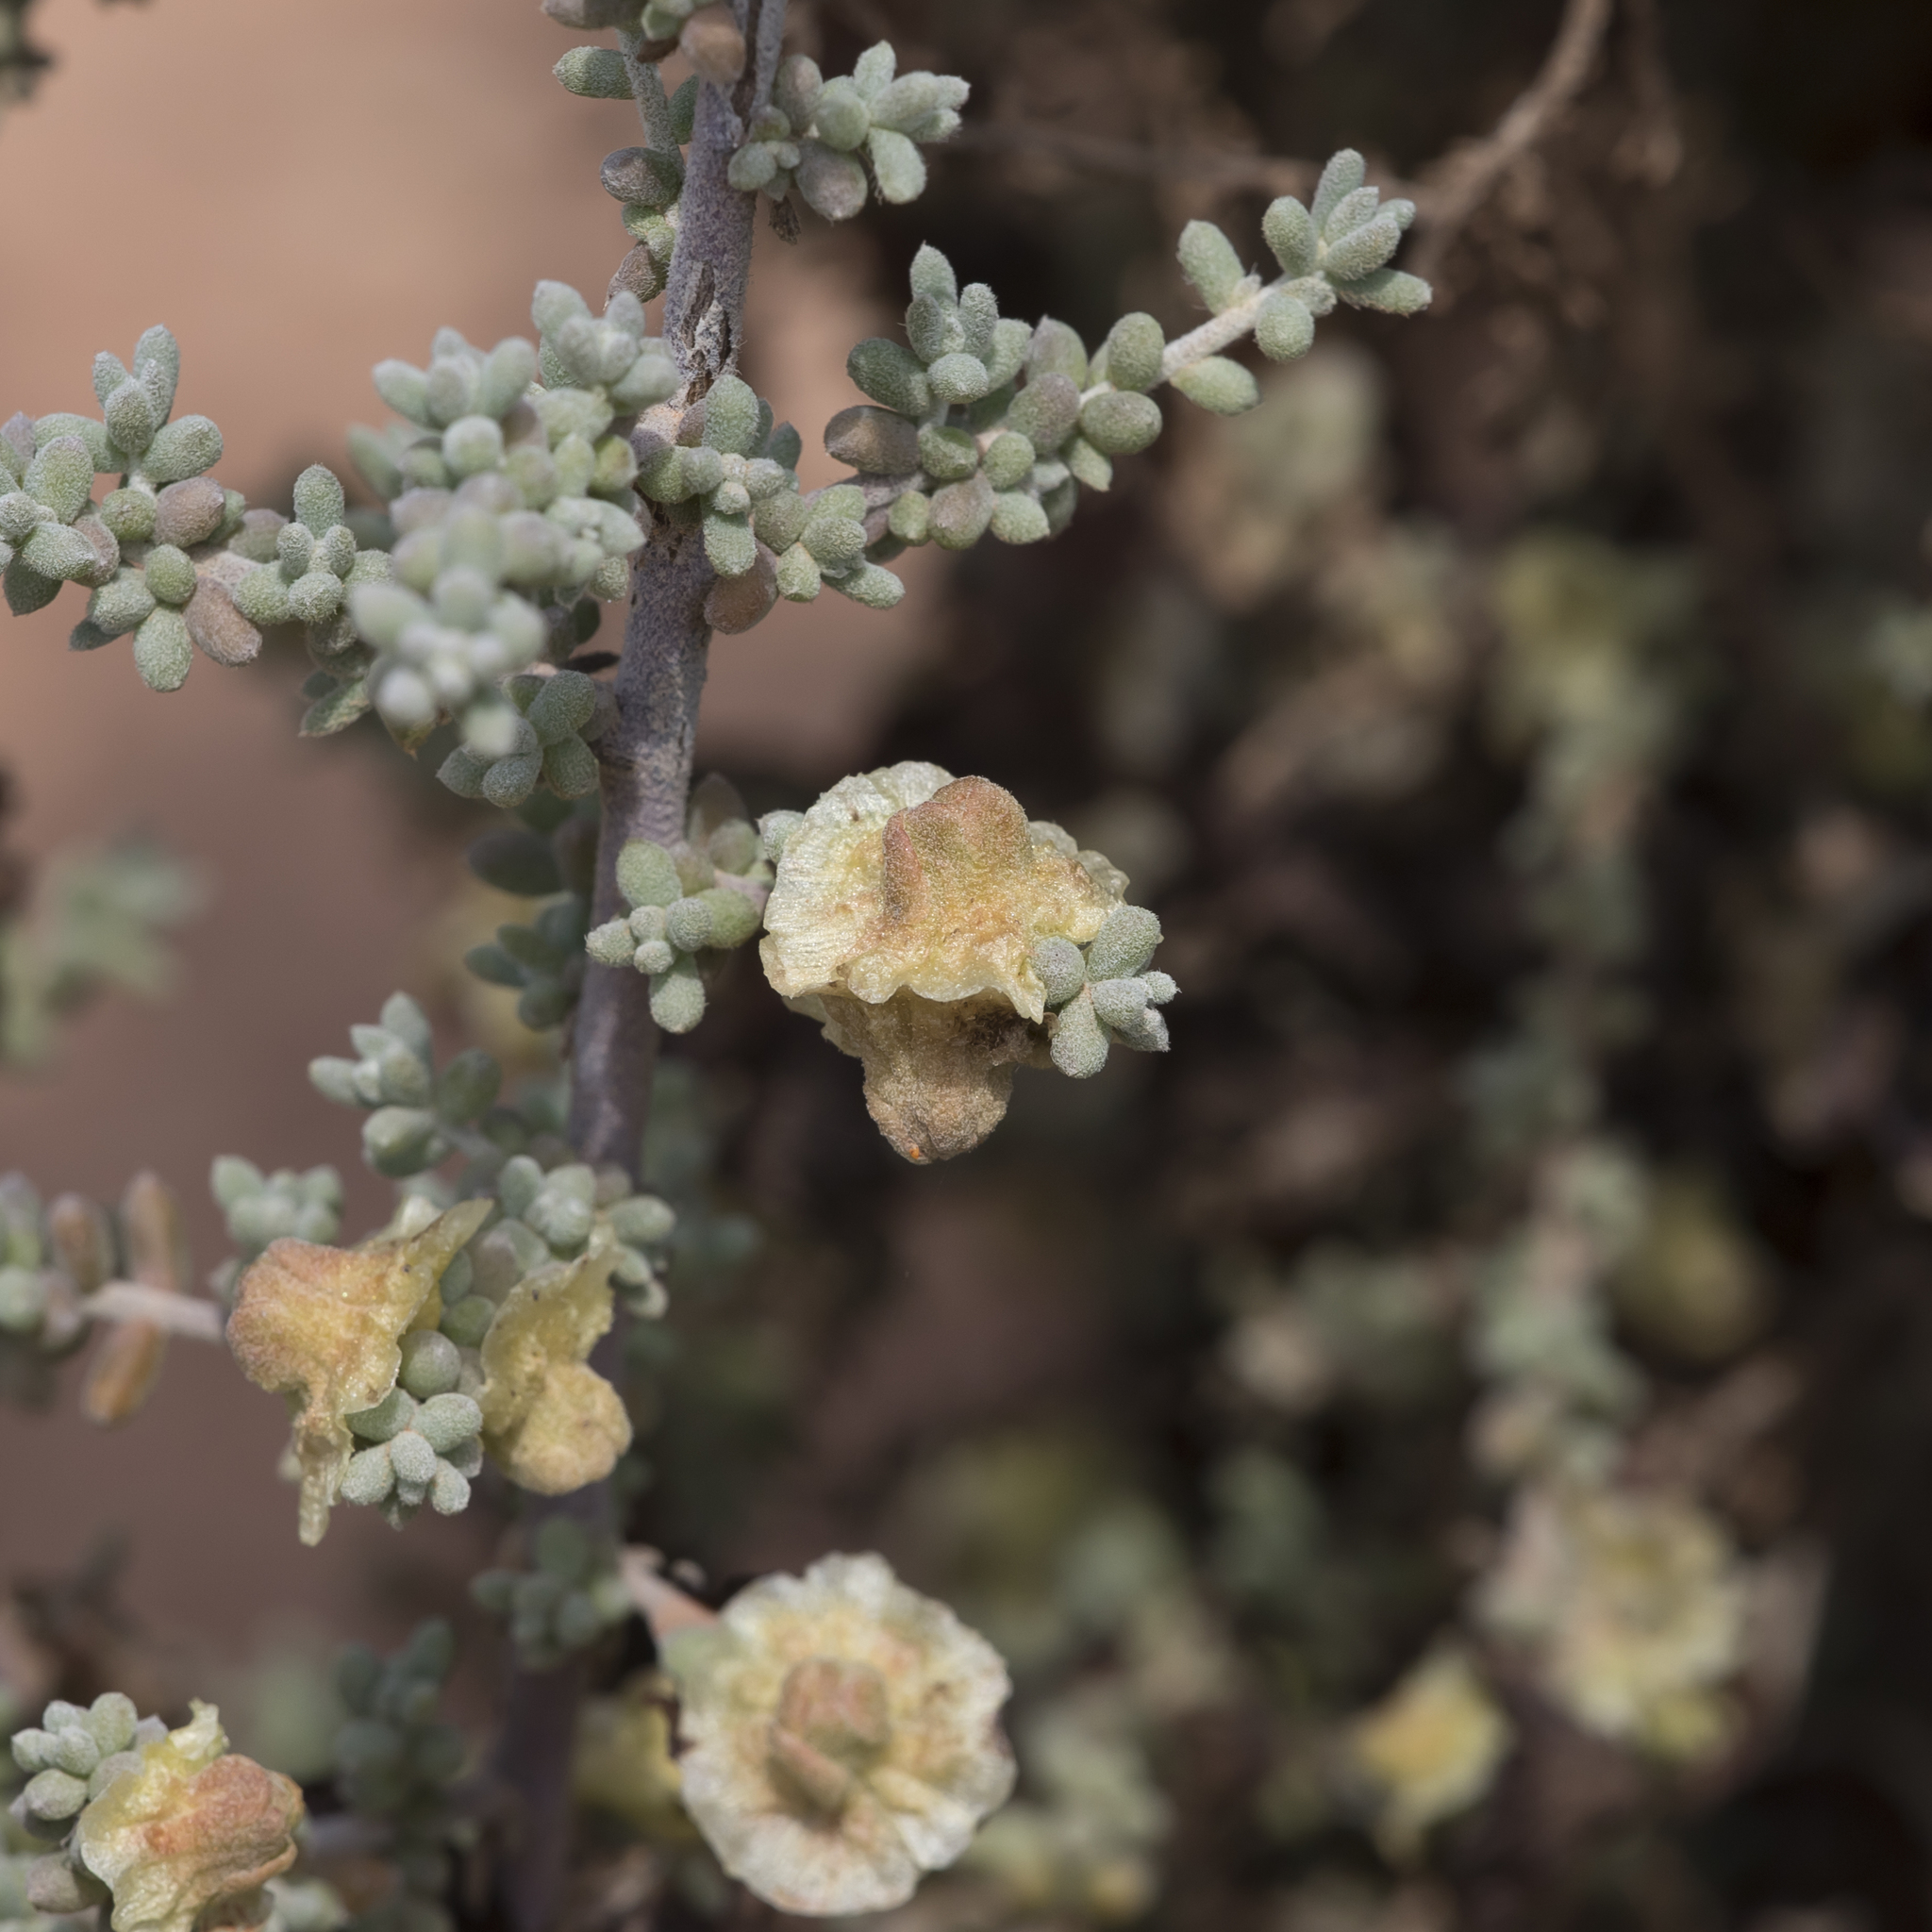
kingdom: Plantae
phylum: Tracheophyta
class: Magnoliopsida
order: Caryophyllales
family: Amaranthaceae
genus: Maireana
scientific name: Maireana pyramidata
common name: Sagobush
